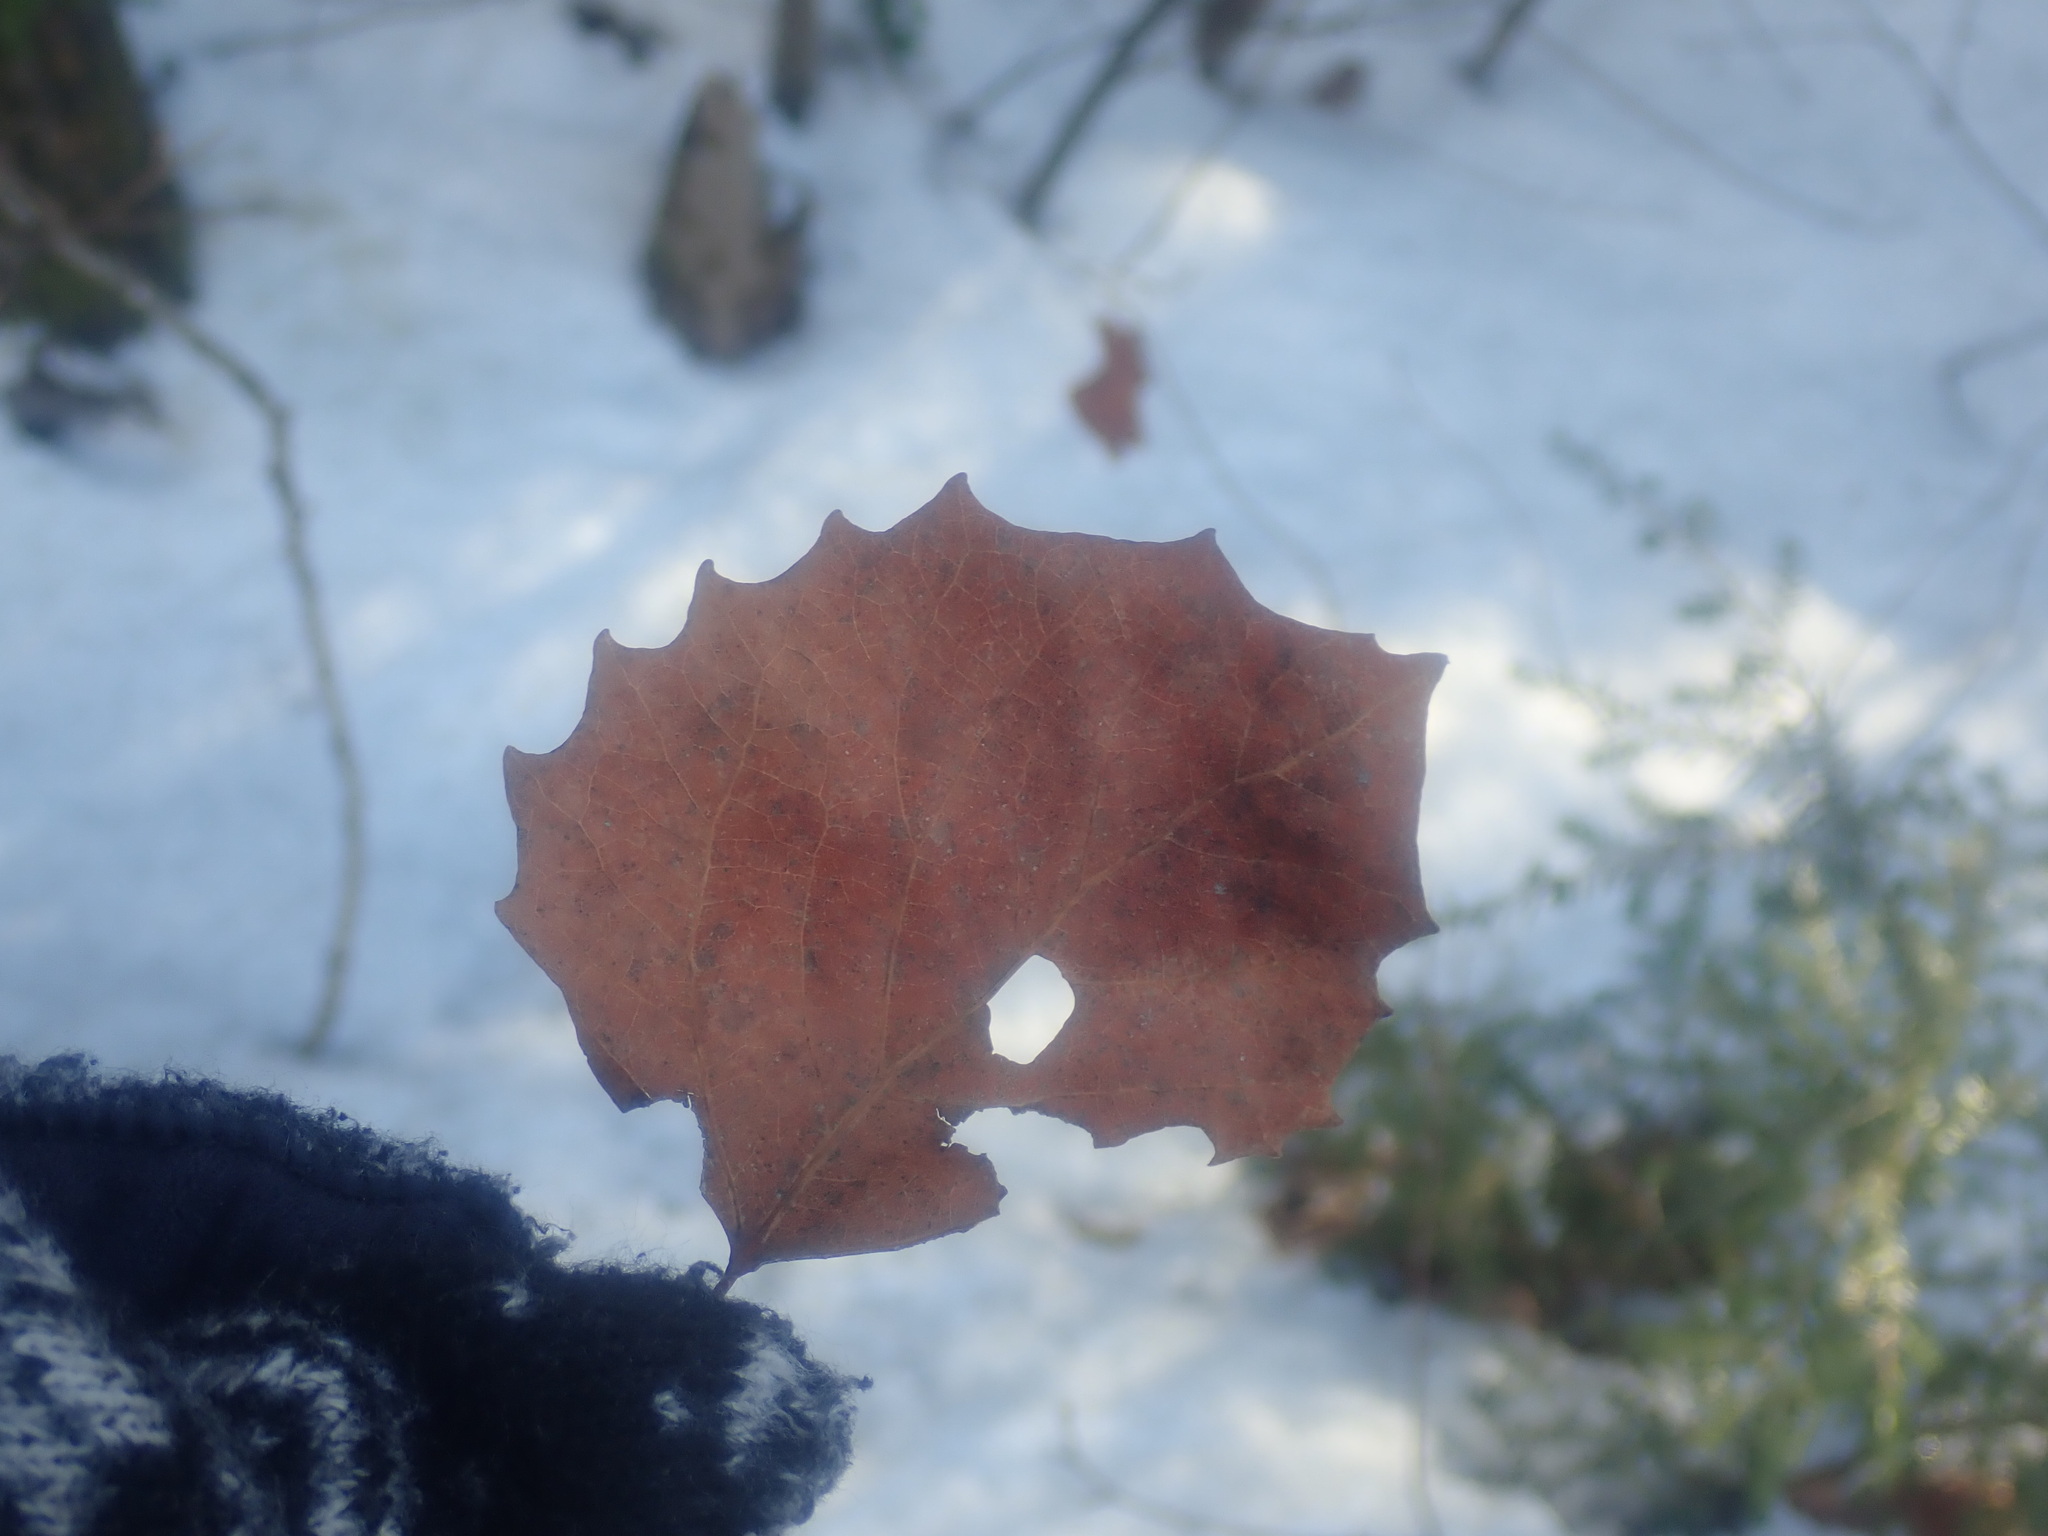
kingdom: Plantae
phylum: Tracheophyta
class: Magnoliopsida
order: Malpighiales
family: Salicaceae
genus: Populus
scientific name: Populus grandidentata
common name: Bigtooth aspen
